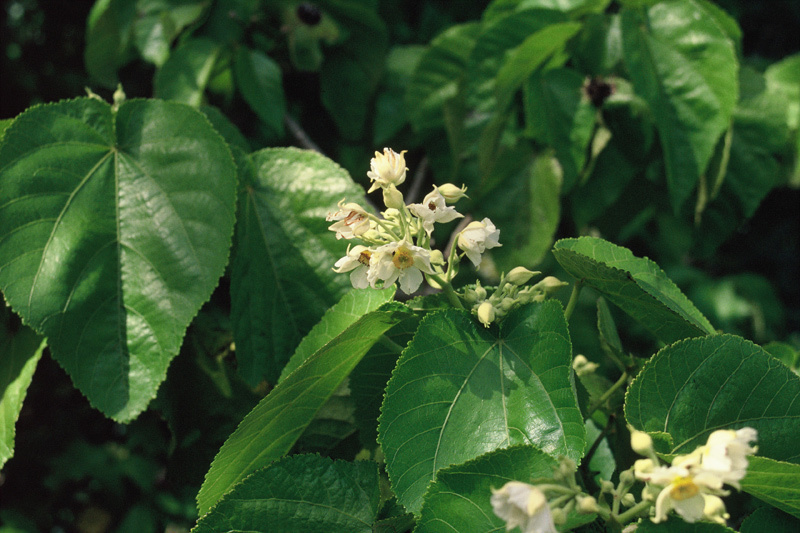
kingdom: Plantae
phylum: Tracheophyta
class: Magnoliopsida
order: Malvales
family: Malvaceae
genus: Entelea
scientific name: Entelea arborescens
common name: New zealand-mulberry
